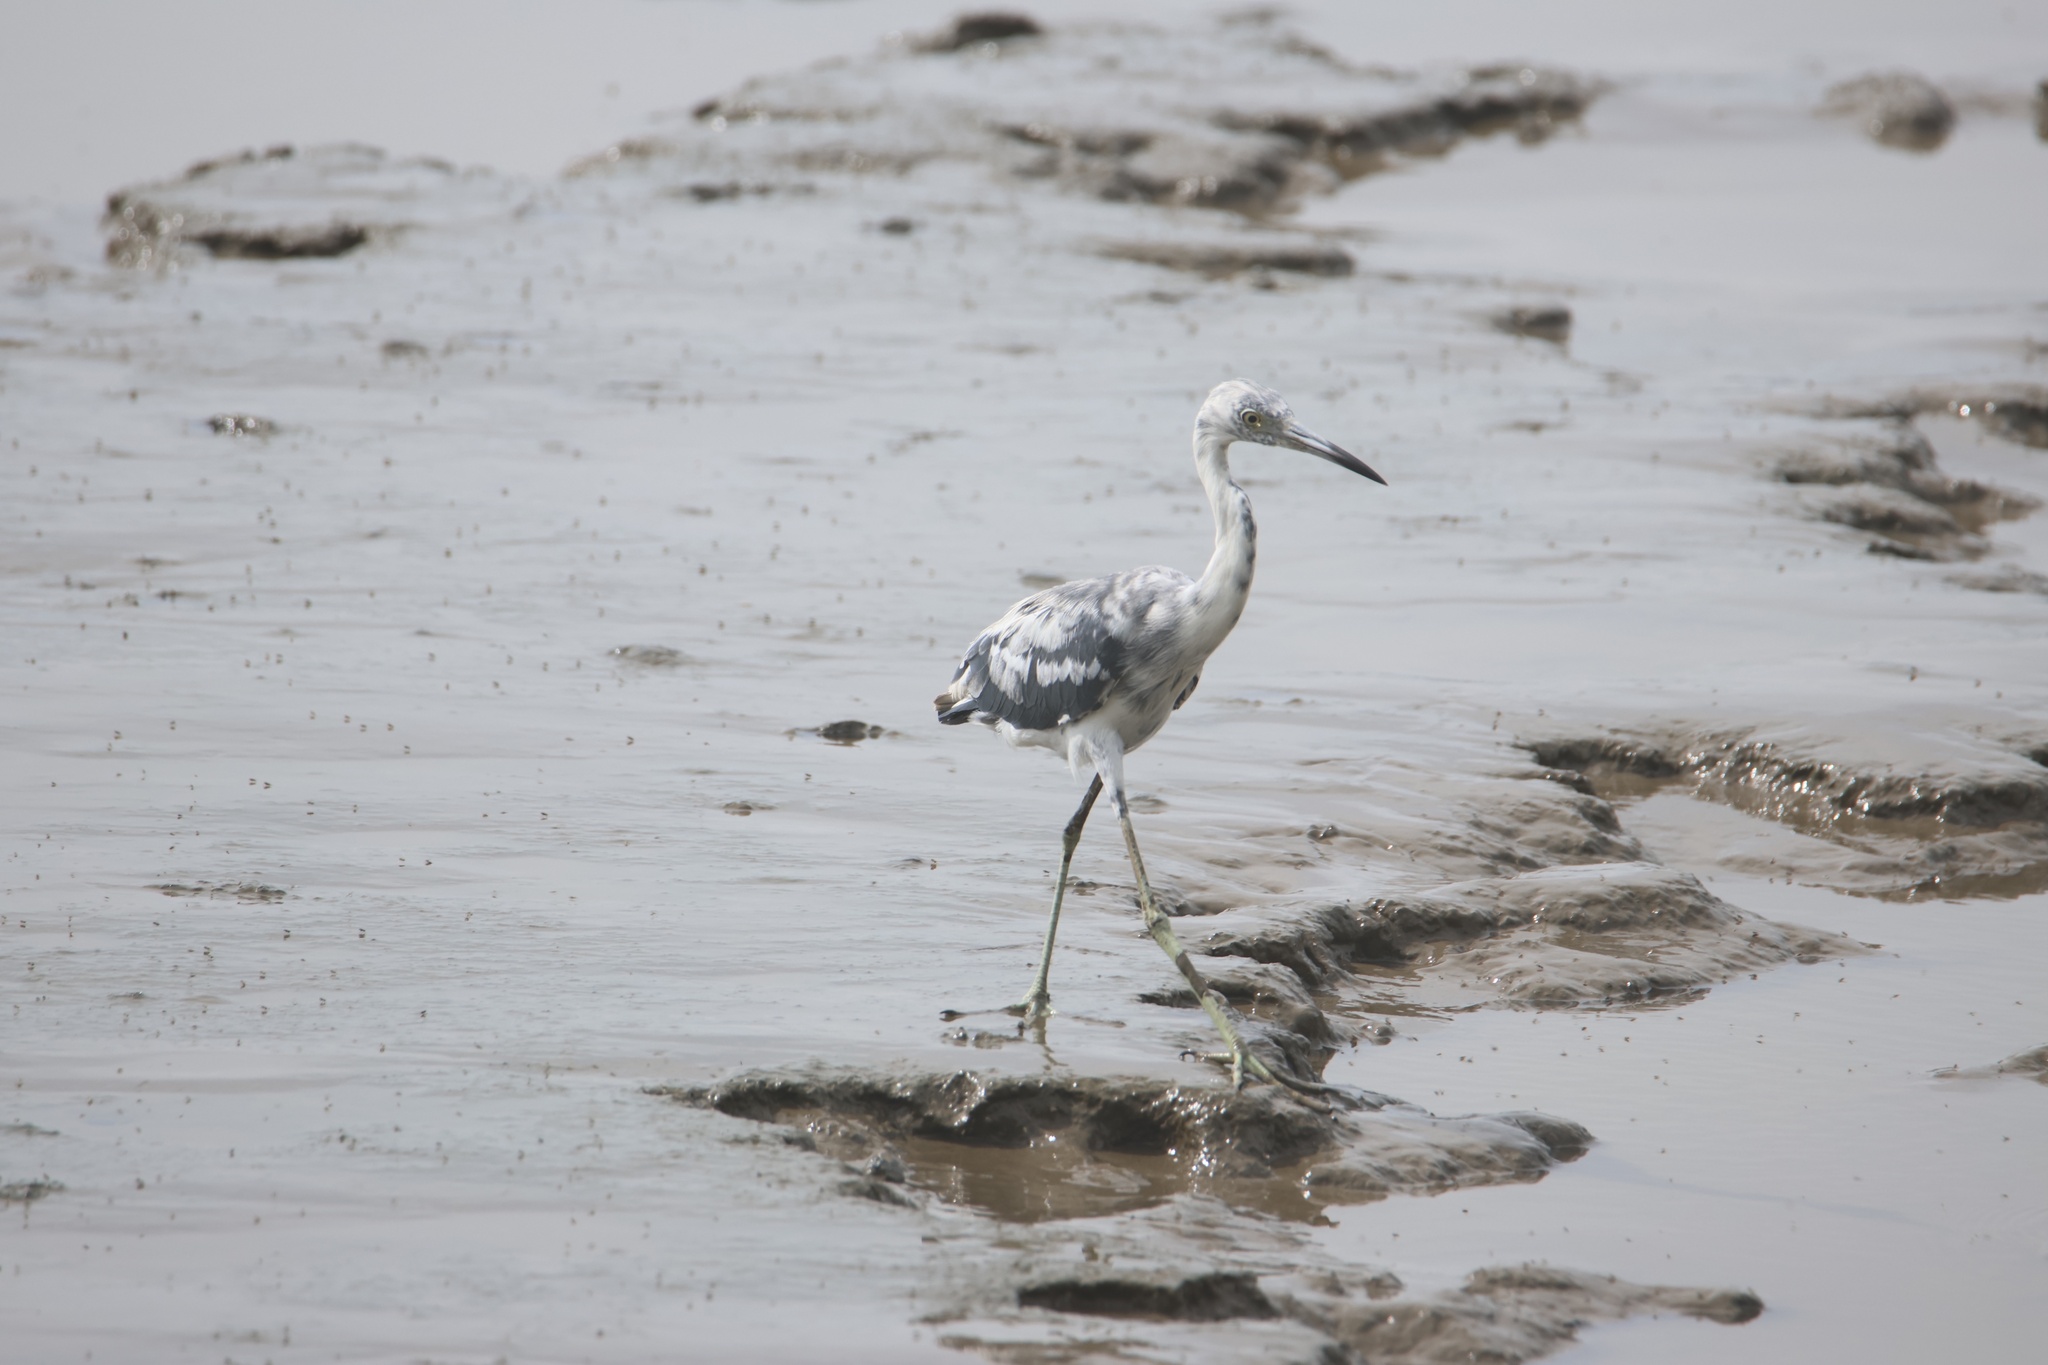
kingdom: Animalia
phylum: Chordata
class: Aves
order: Pelecaniformes
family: Ardeidae
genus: Egretta
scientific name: Egretta caerulea
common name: Little blue heron
